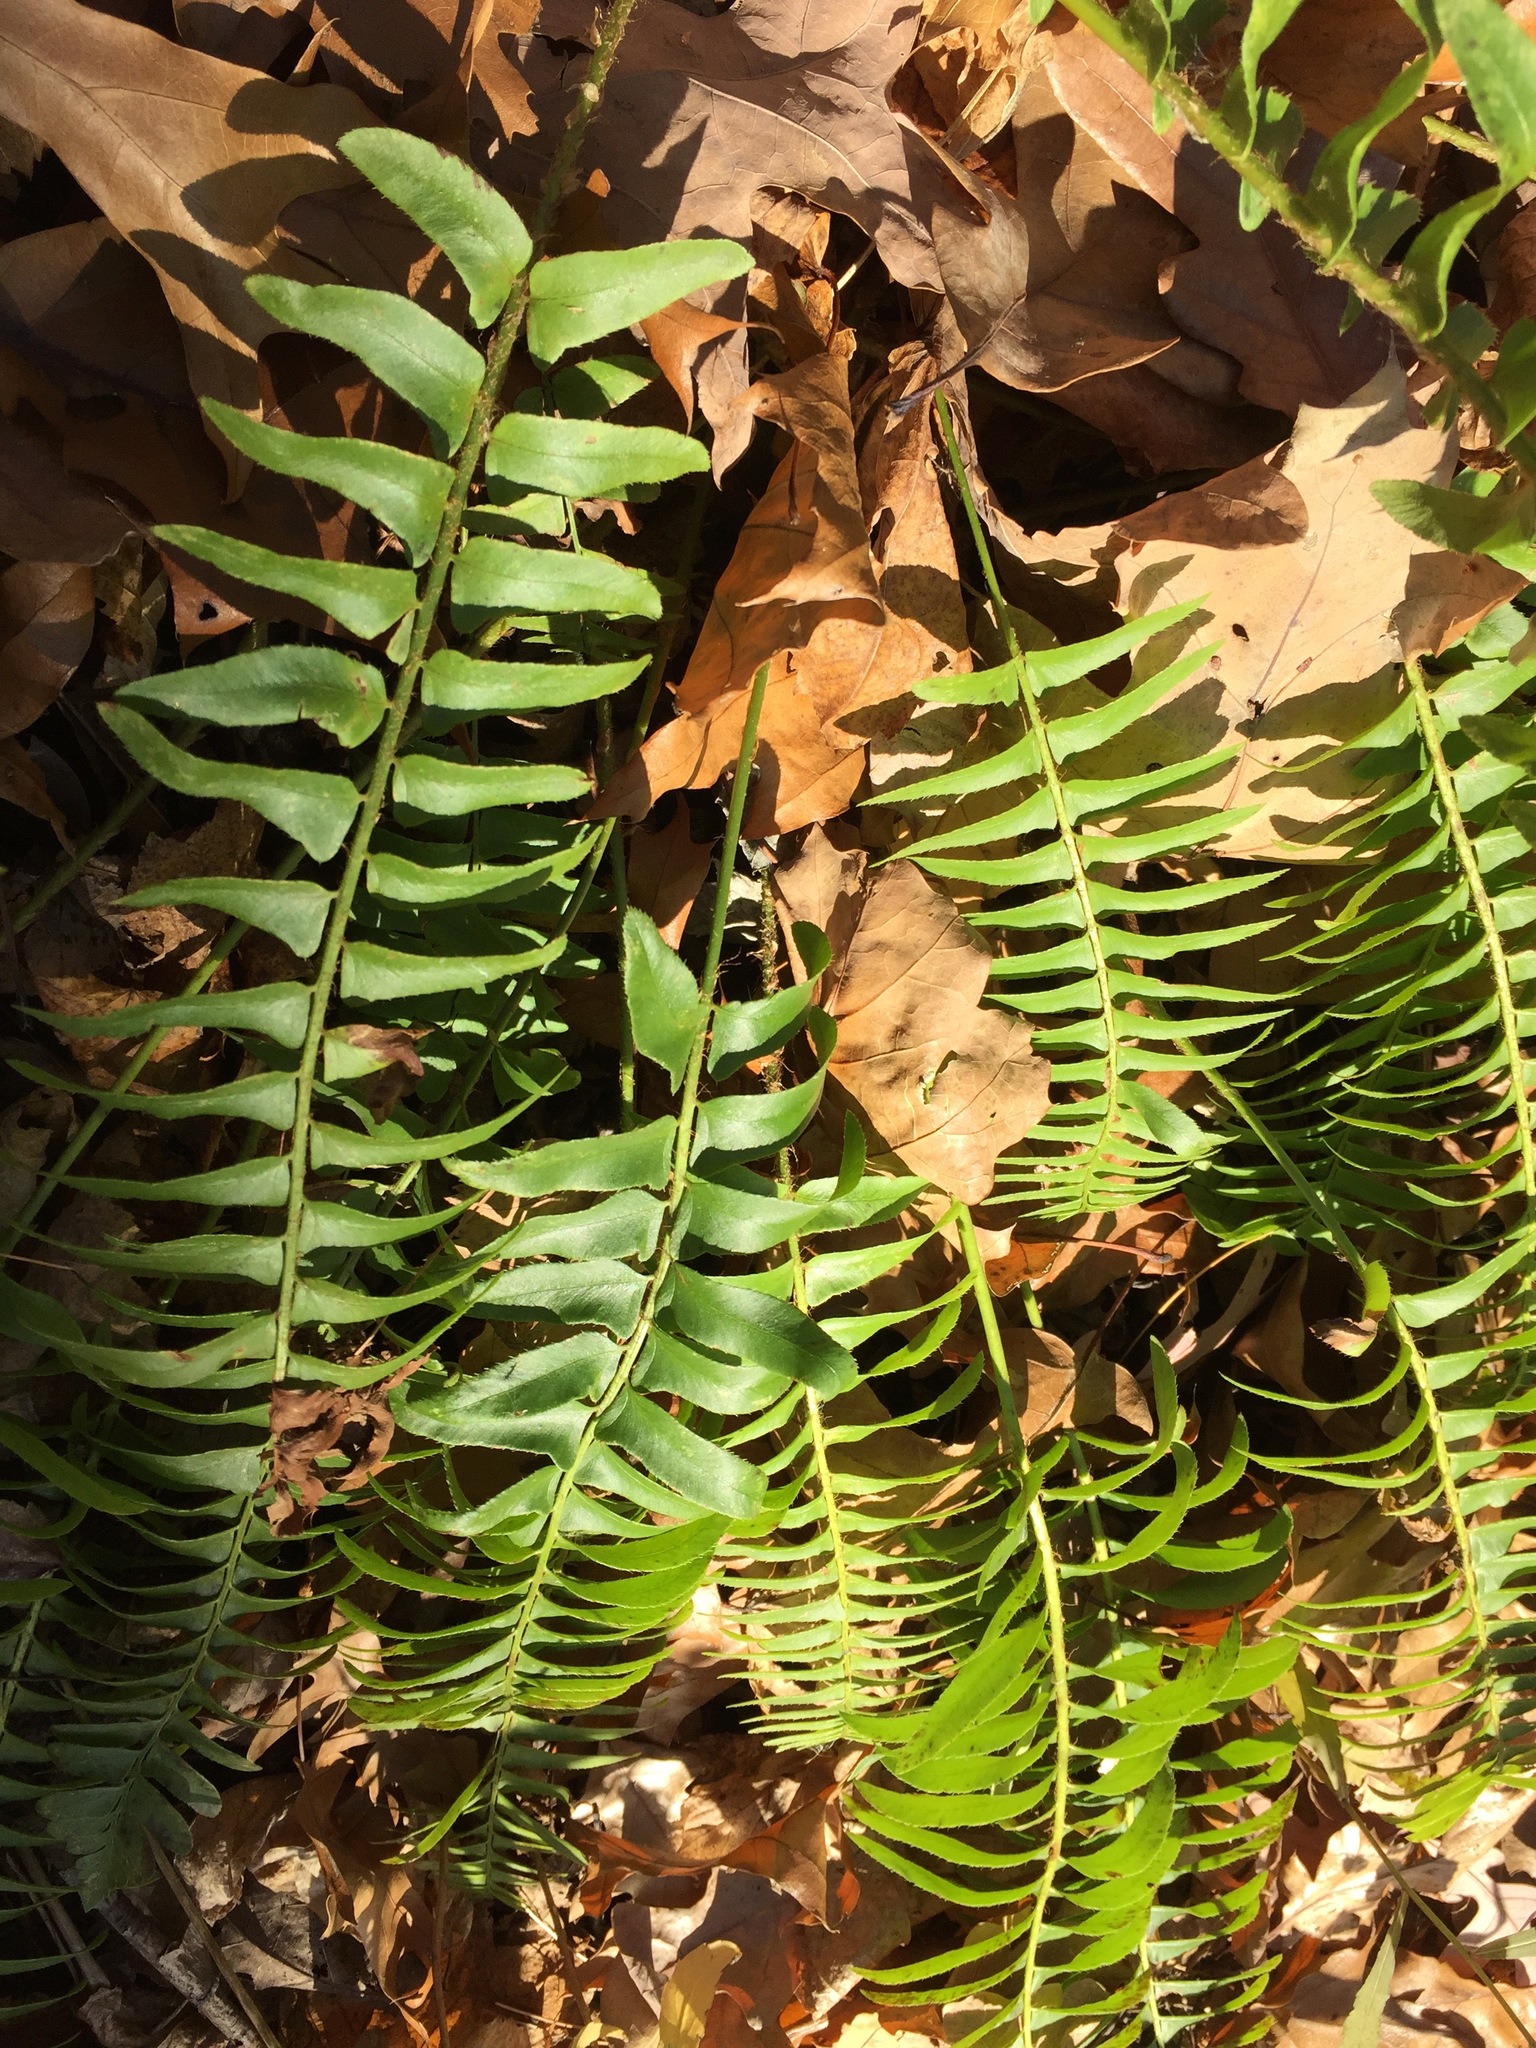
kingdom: Plantae
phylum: Tracheophyta
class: Polypodiopsida
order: Polypodiales
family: Dryopteridaceae
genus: Polystichum
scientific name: Polystichum acrostichoides
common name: Christmas fern
